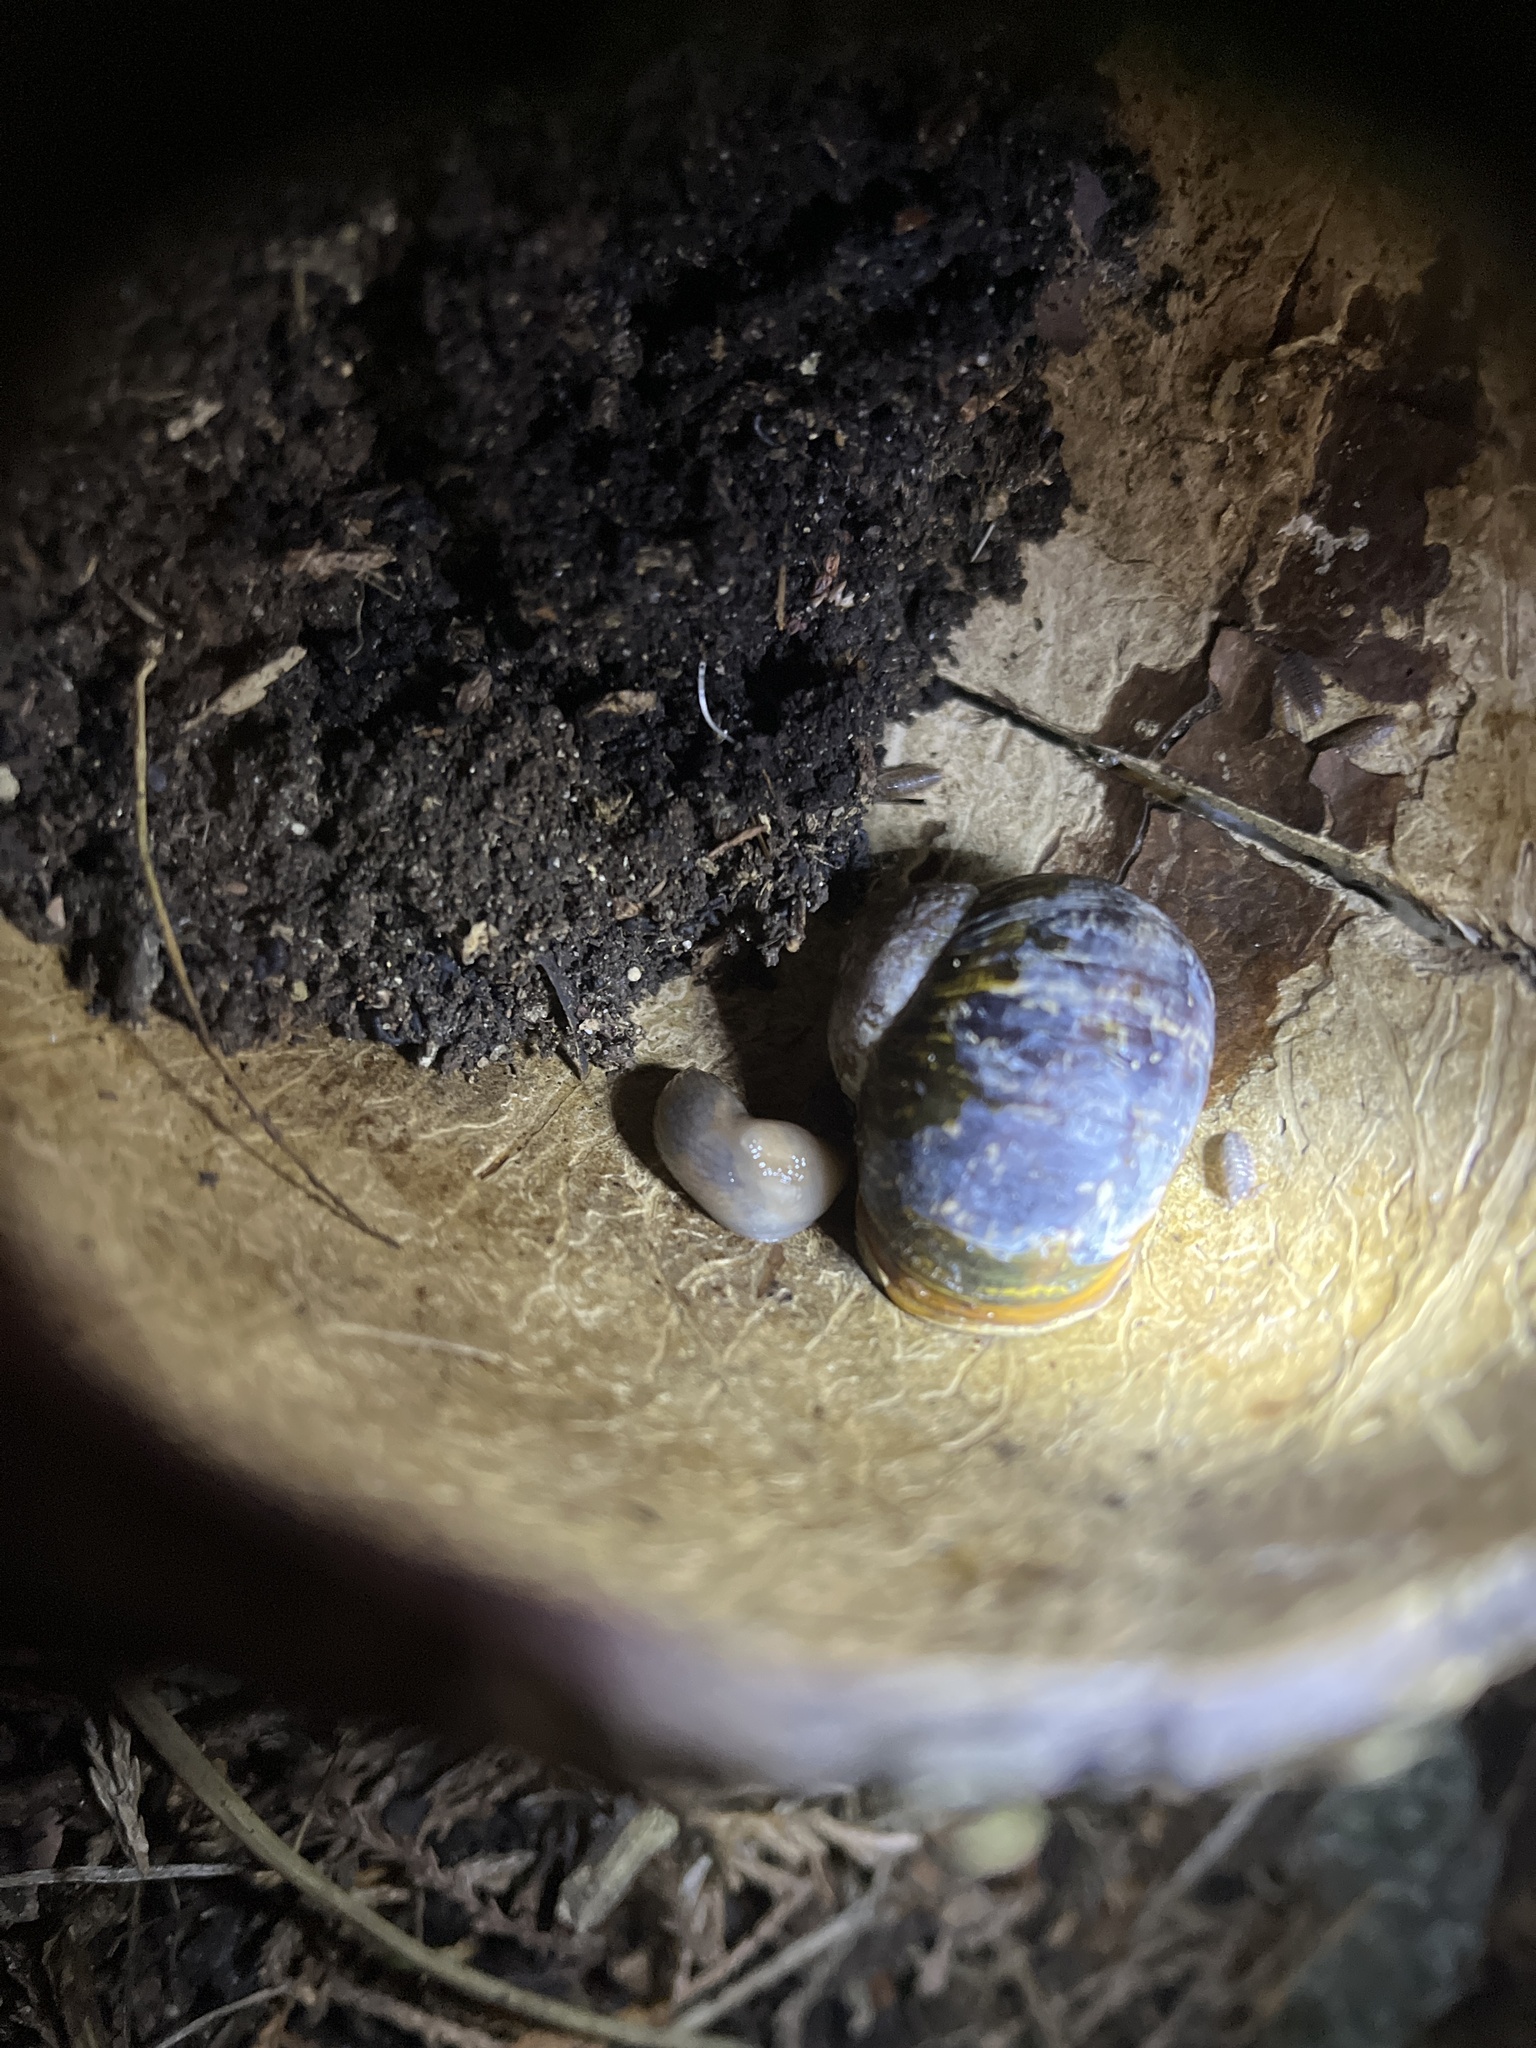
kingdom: Animalia
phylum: Mollusca
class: Gastropoda
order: Stylommatophora
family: Helicidae
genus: Cornu
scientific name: Cornu aspersum
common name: Brown garden snail
